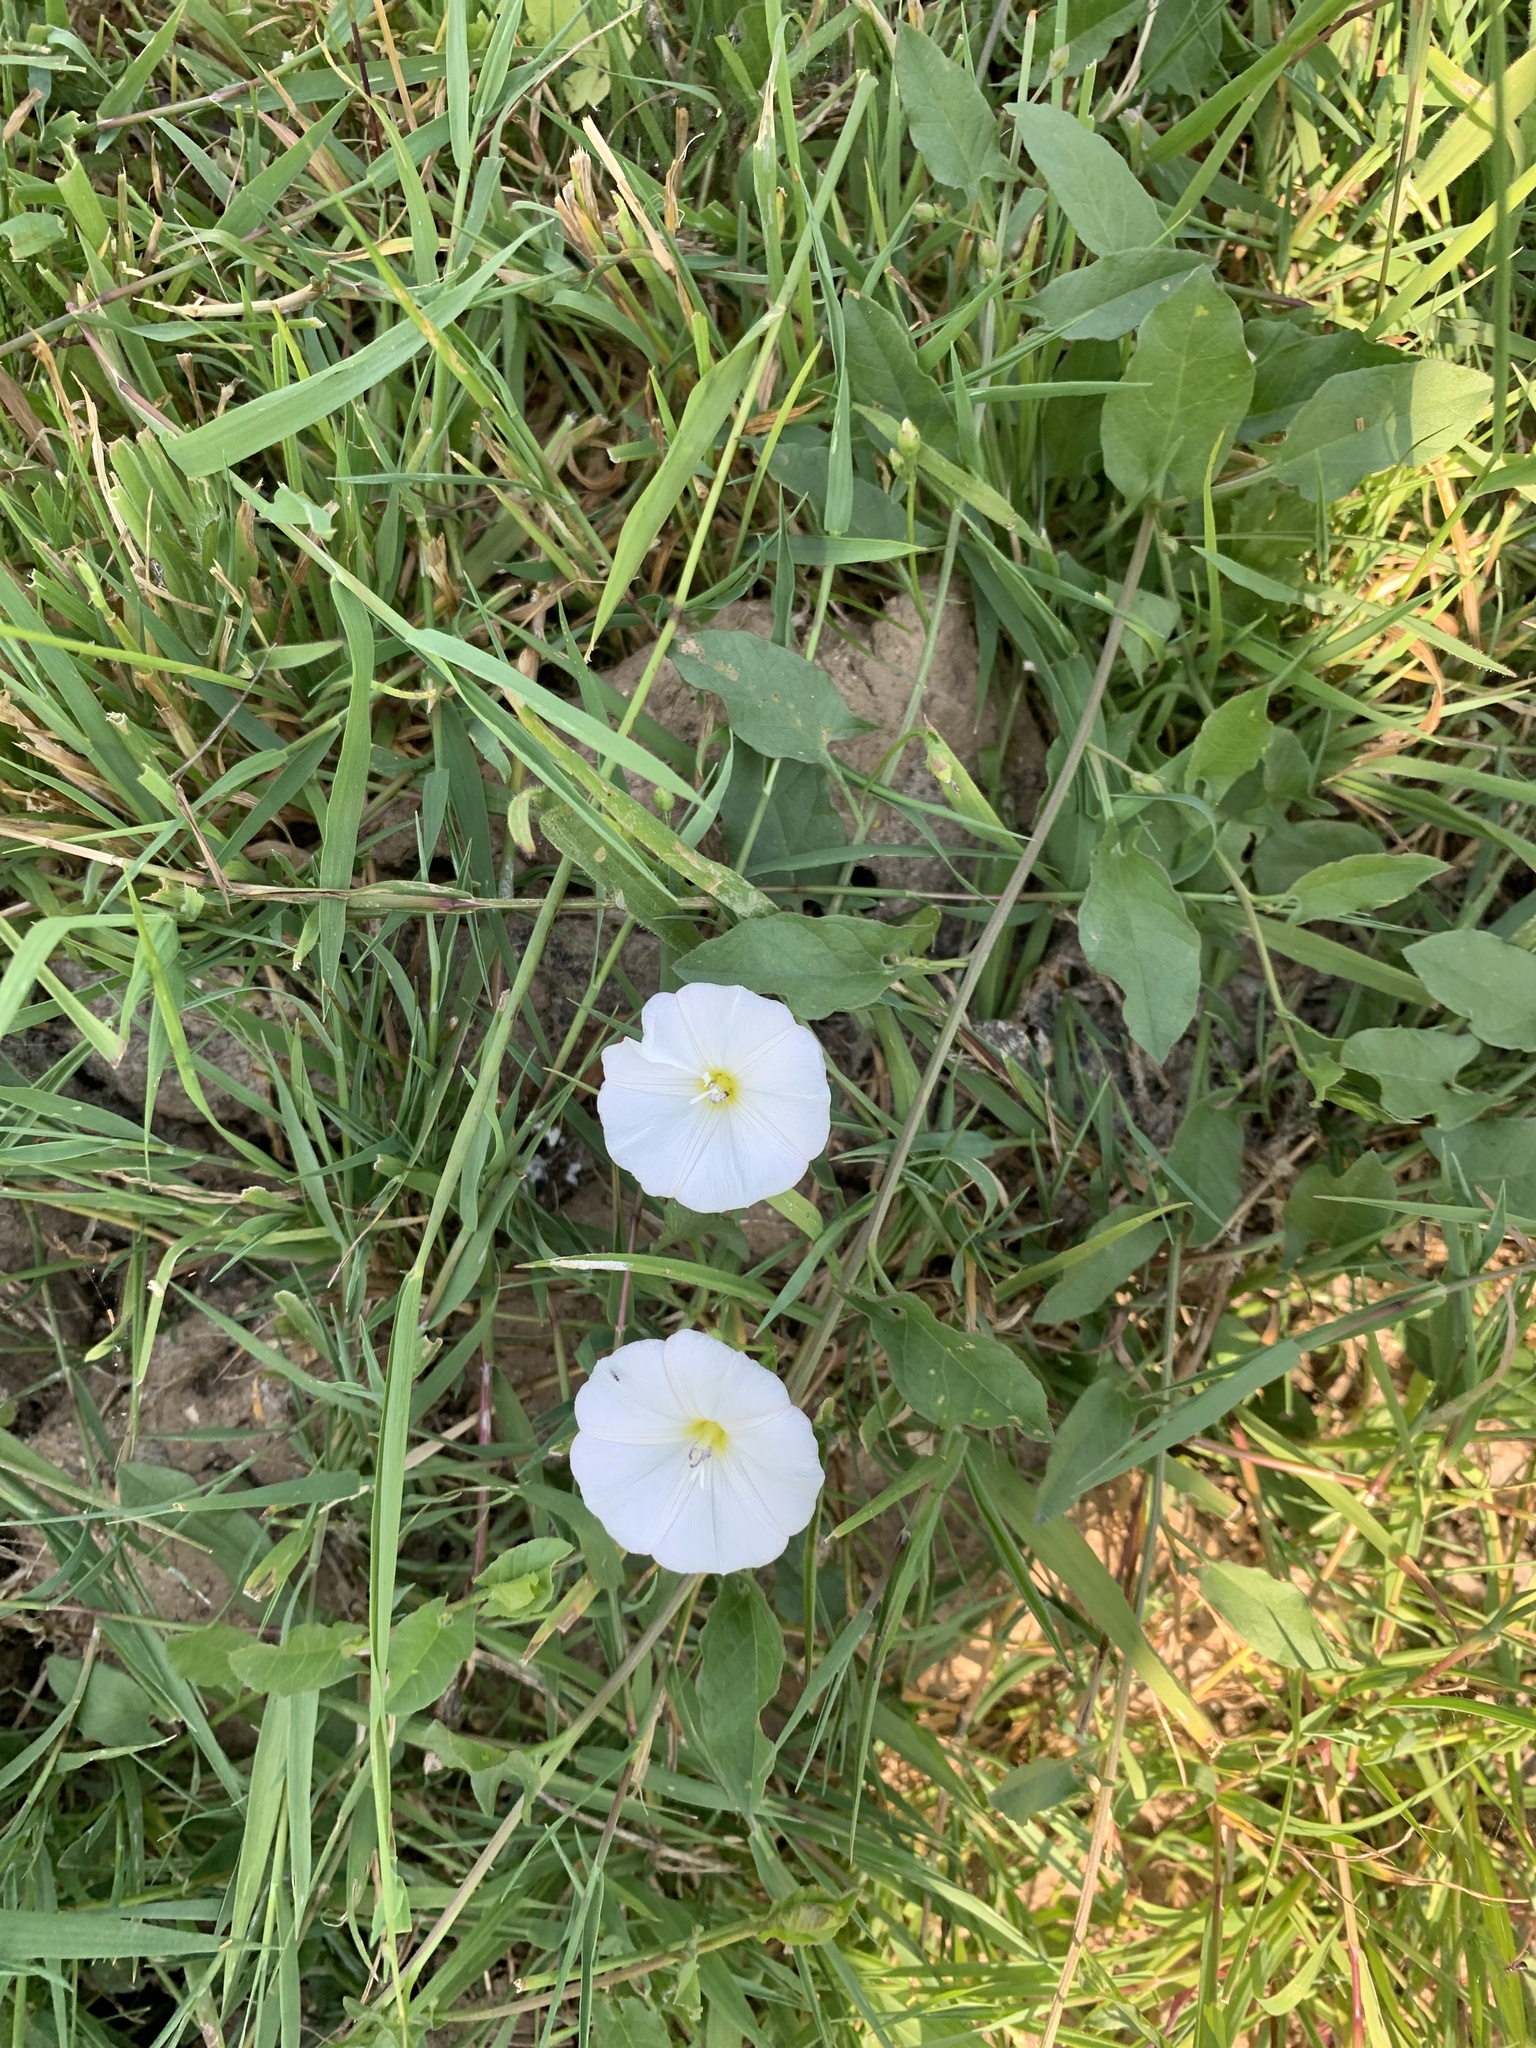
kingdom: Plantae
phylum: Tracheophyta
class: Magnoliopsida
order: Solanales
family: Convolvulaceae
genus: Convolvulus
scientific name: Convolvulus arvensis
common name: Field bindweed
